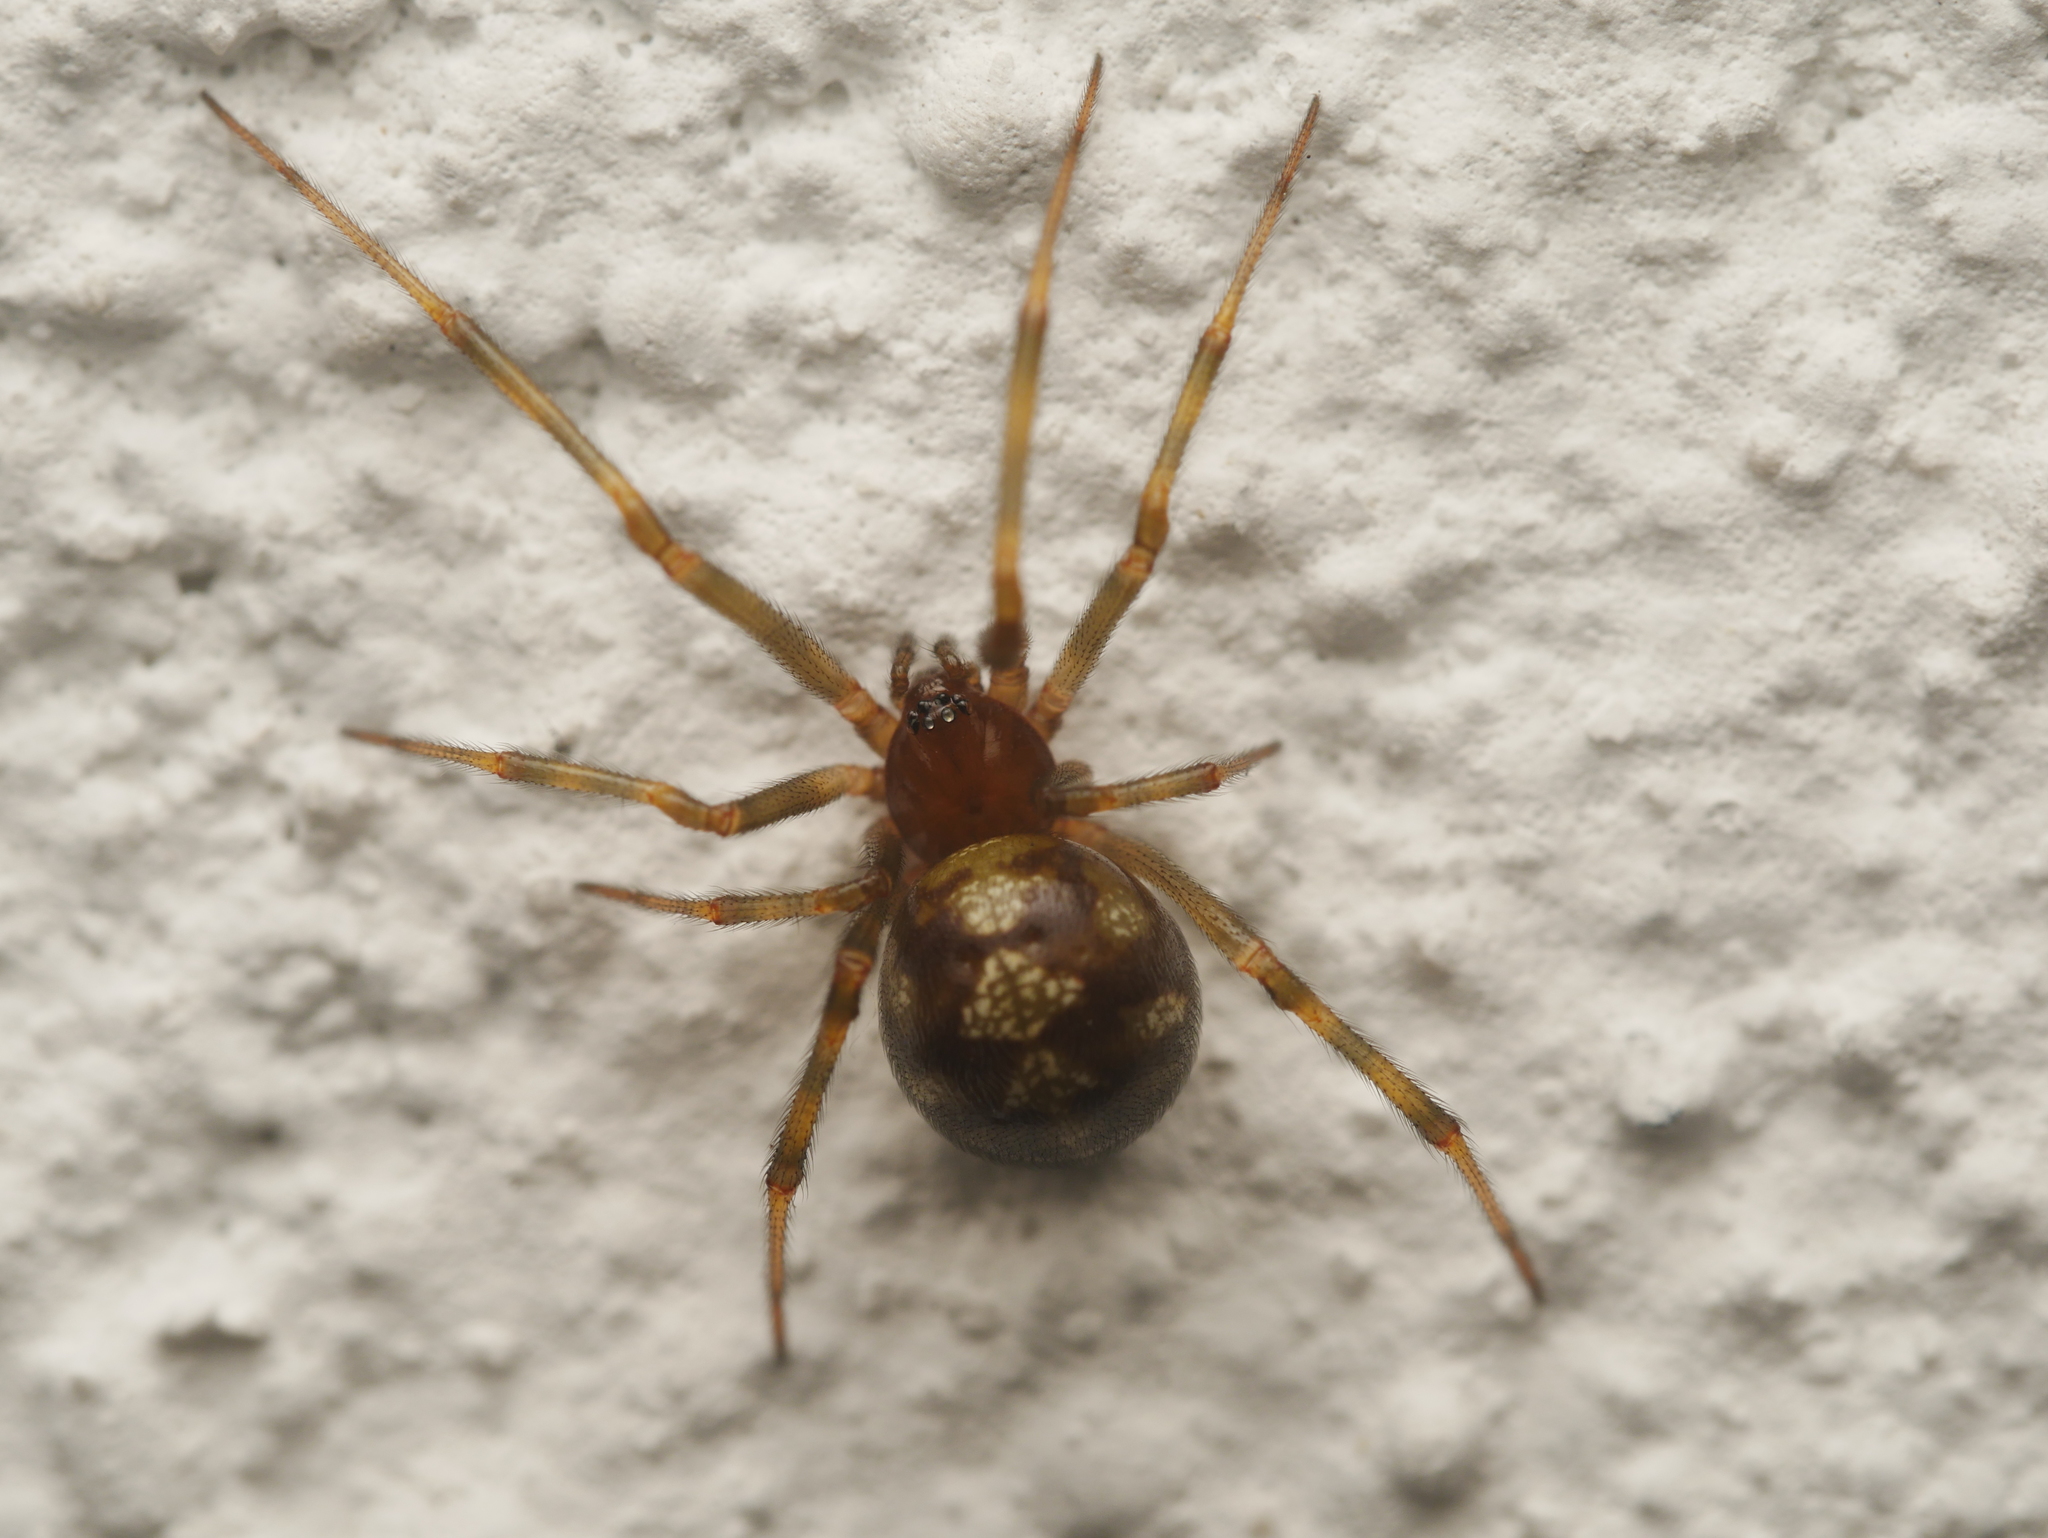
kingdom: Animalia
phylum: Arthropoda
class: Arachnida
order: Araneae
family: Theridiidae
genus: Steatoda
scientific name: Steatoda triangulosa
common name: Triangulate bud spider
